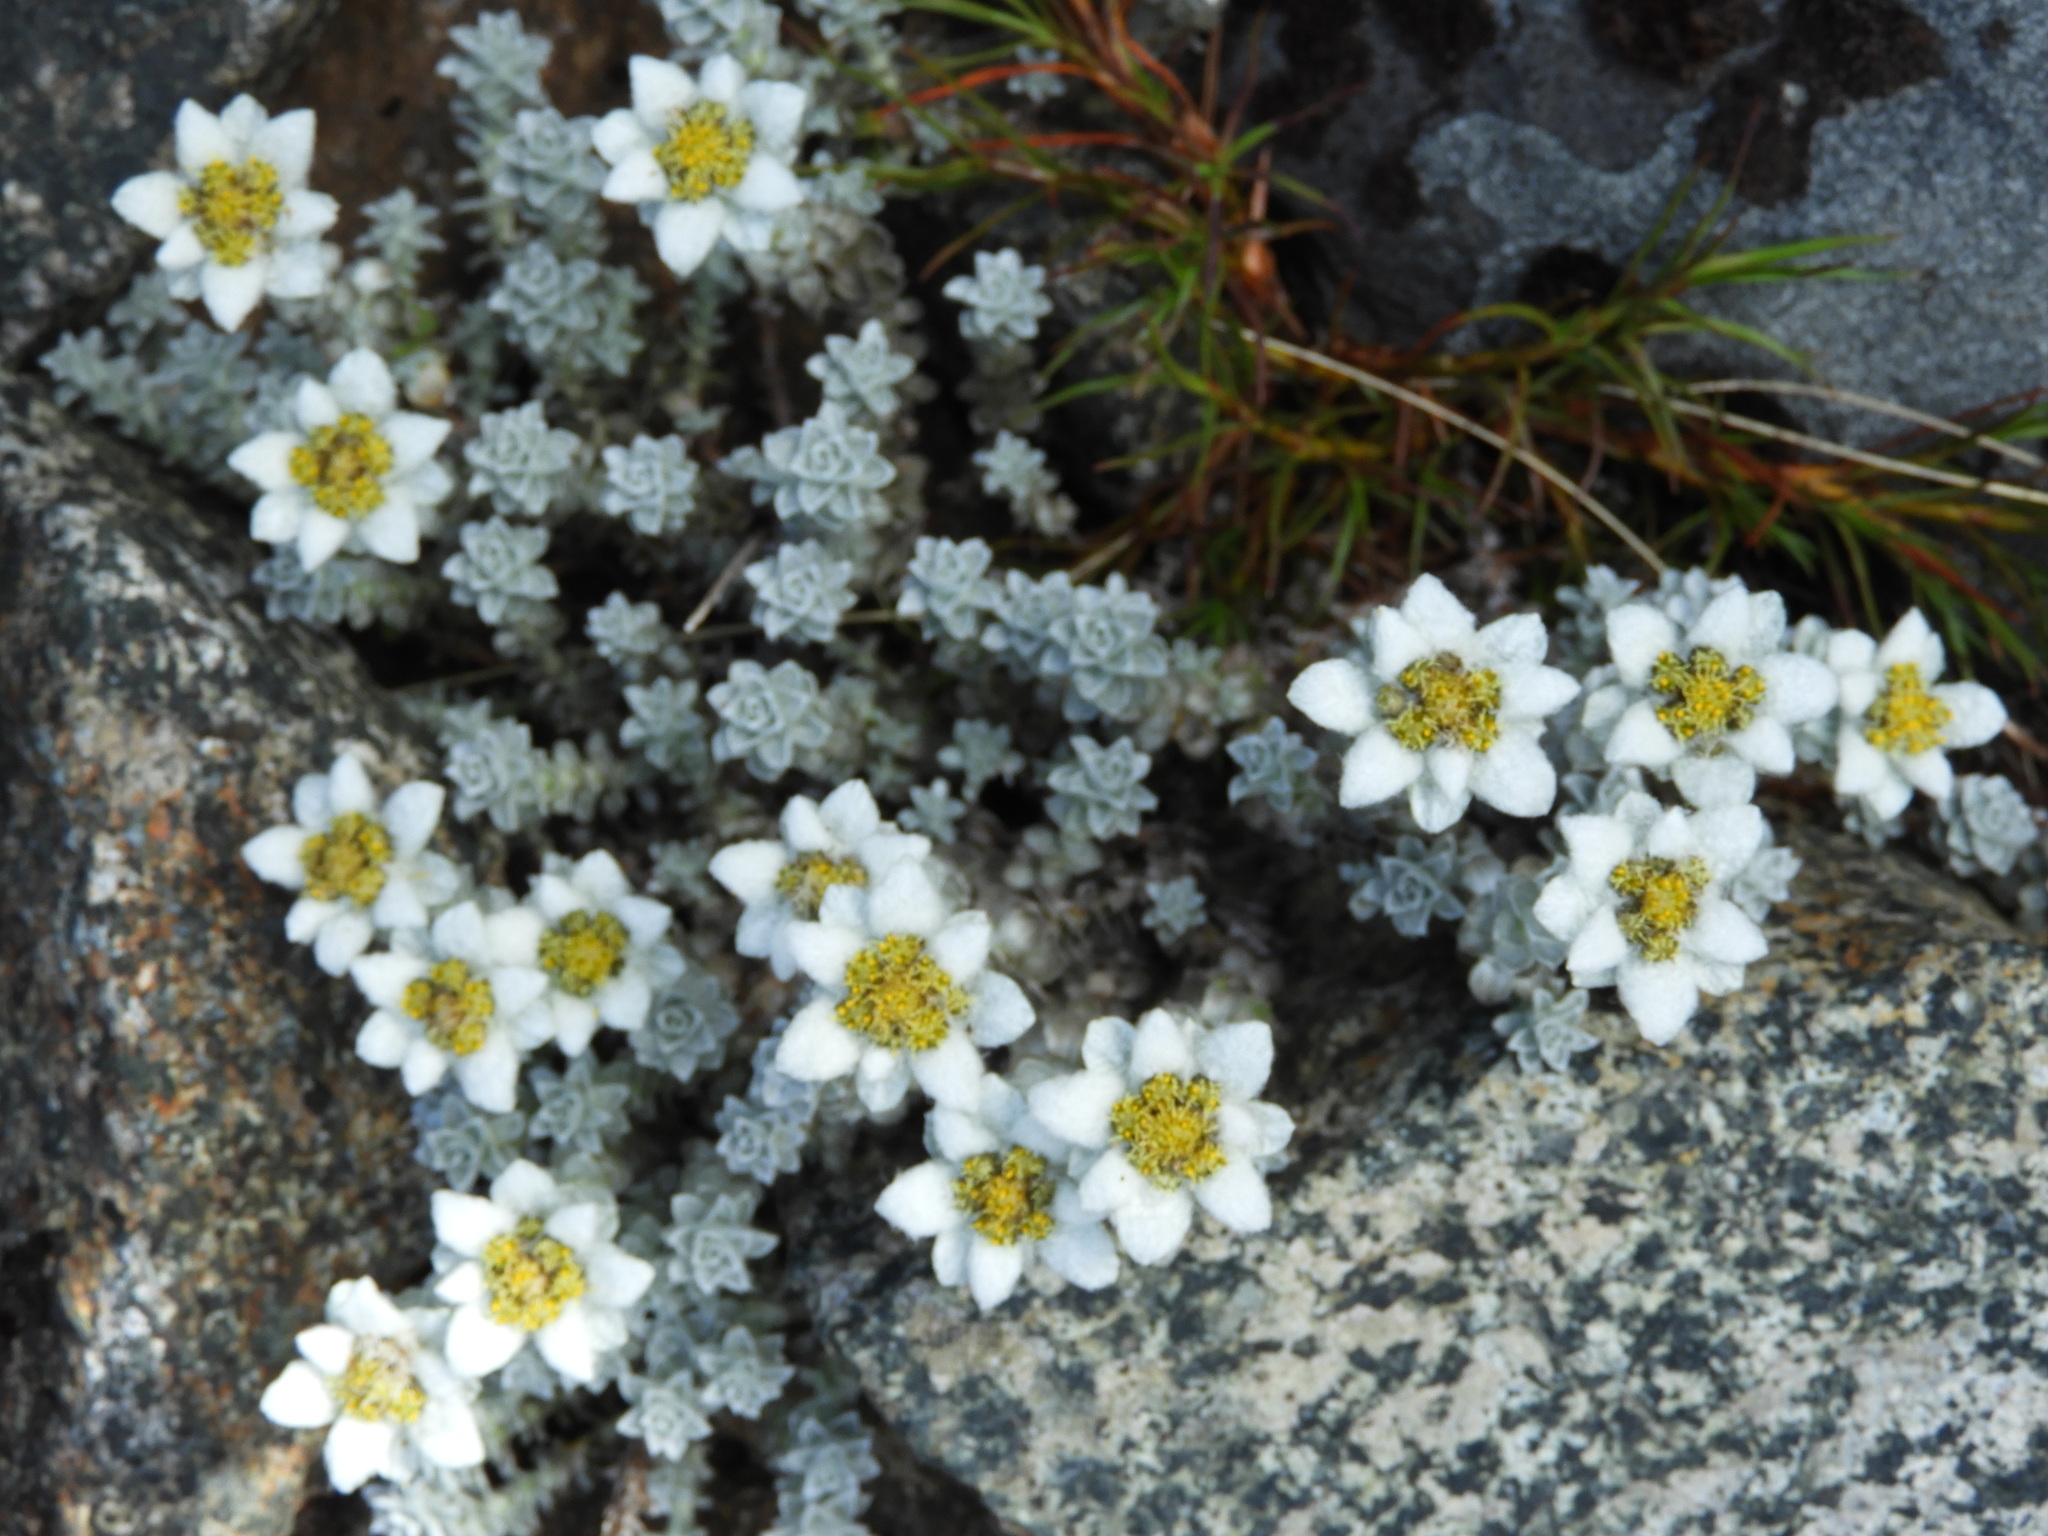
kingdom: Plantae
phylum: Tracheophyta
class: Magnoliopsida
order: Asterales
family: Asteraceae
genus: Leucogenes
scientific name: Leucogenes grandiceps
